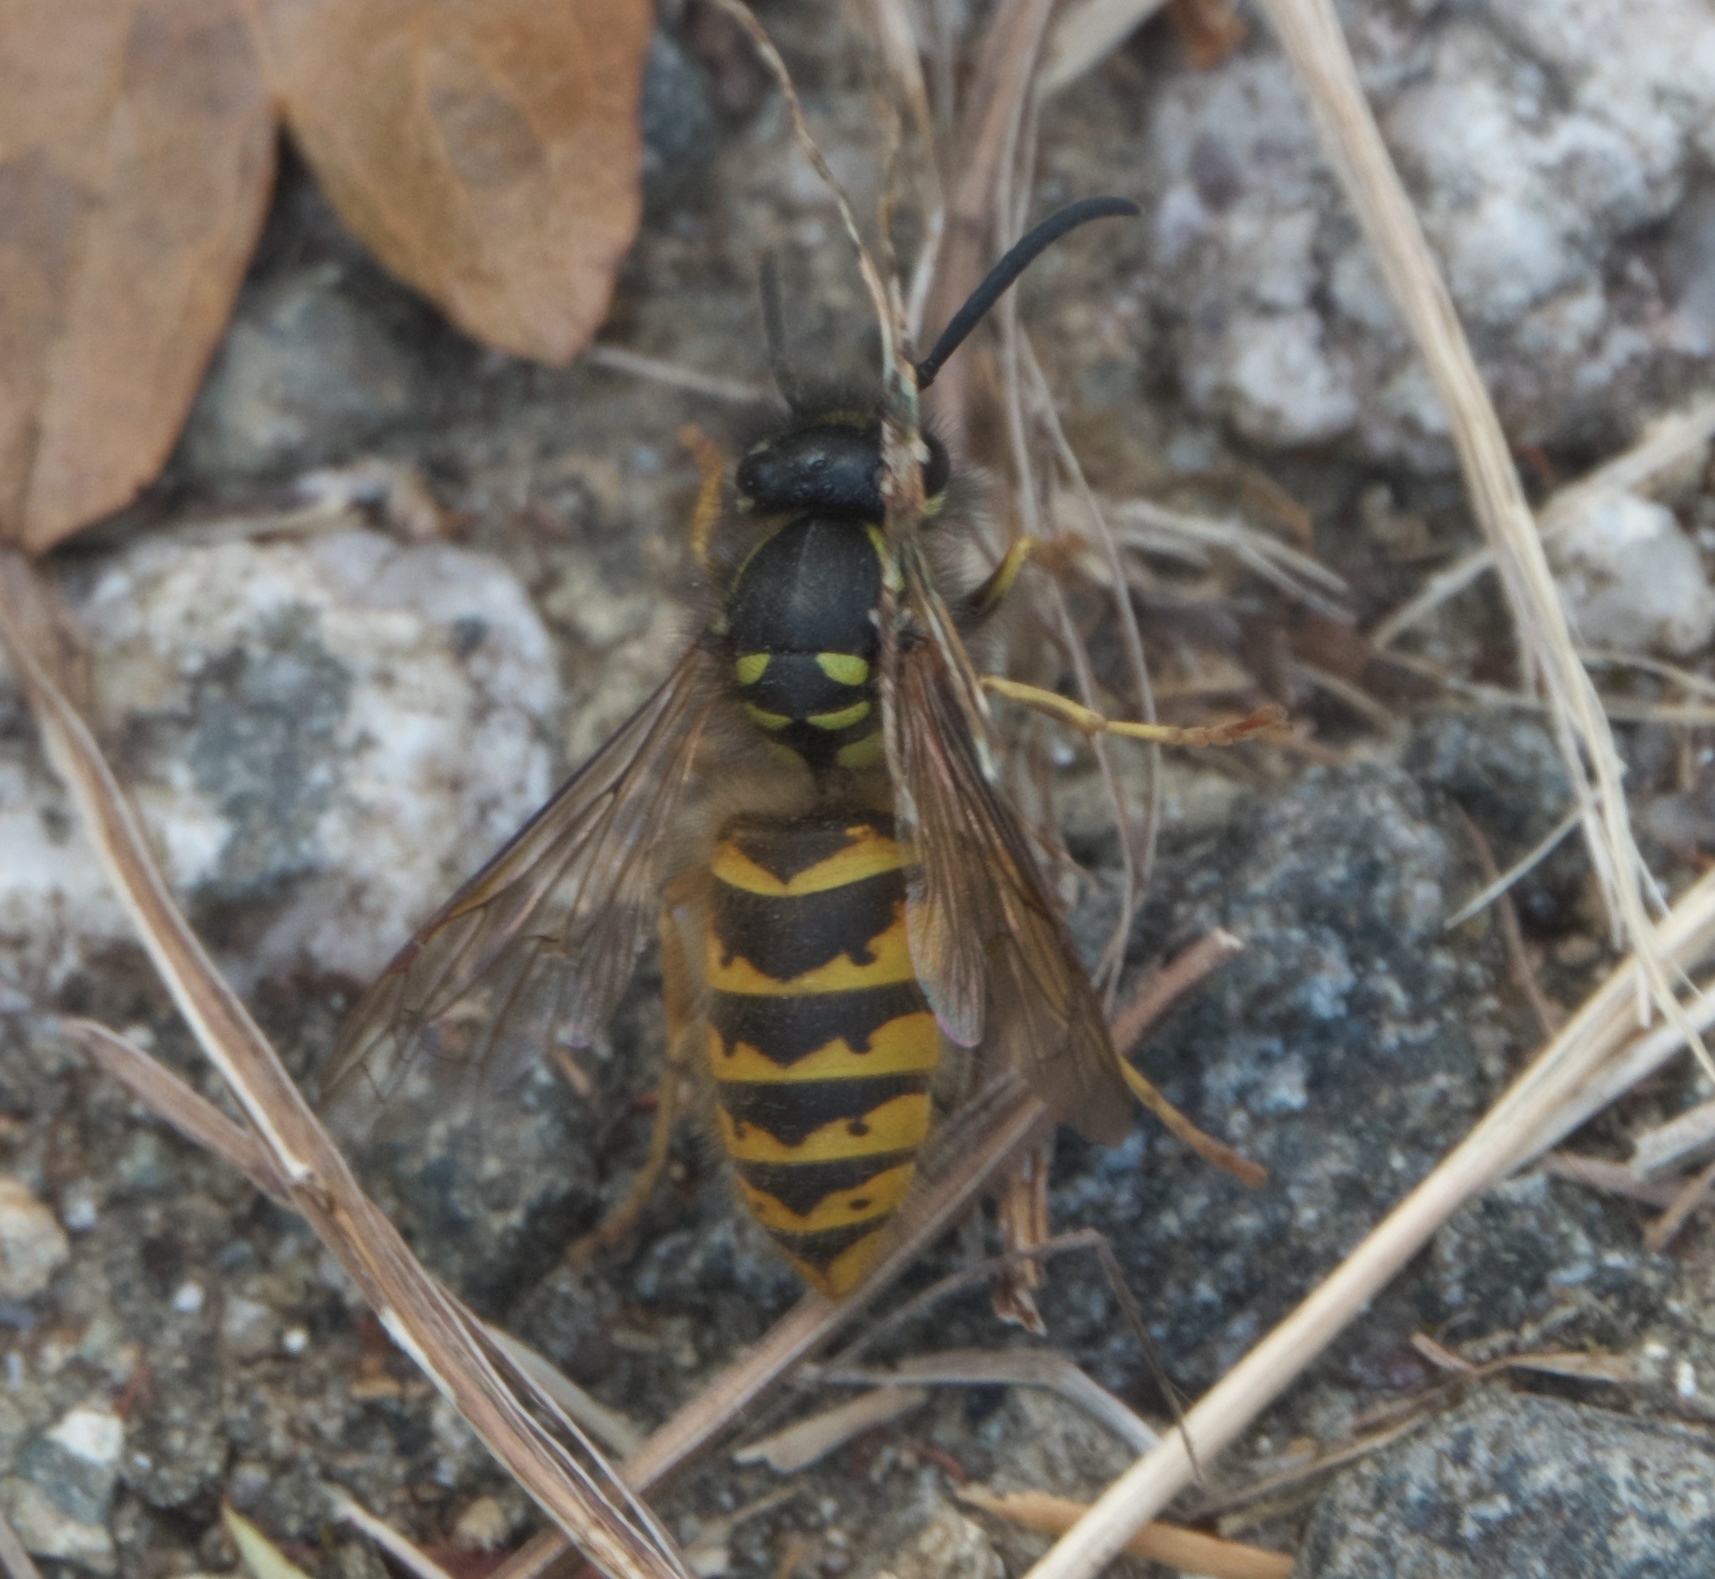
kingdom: Animalia
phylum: Arthropoda
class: Insecta
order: Hymenoptera
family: Vespidae
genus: Vespula
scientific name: Vespula vulgaris
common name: Common wasp
